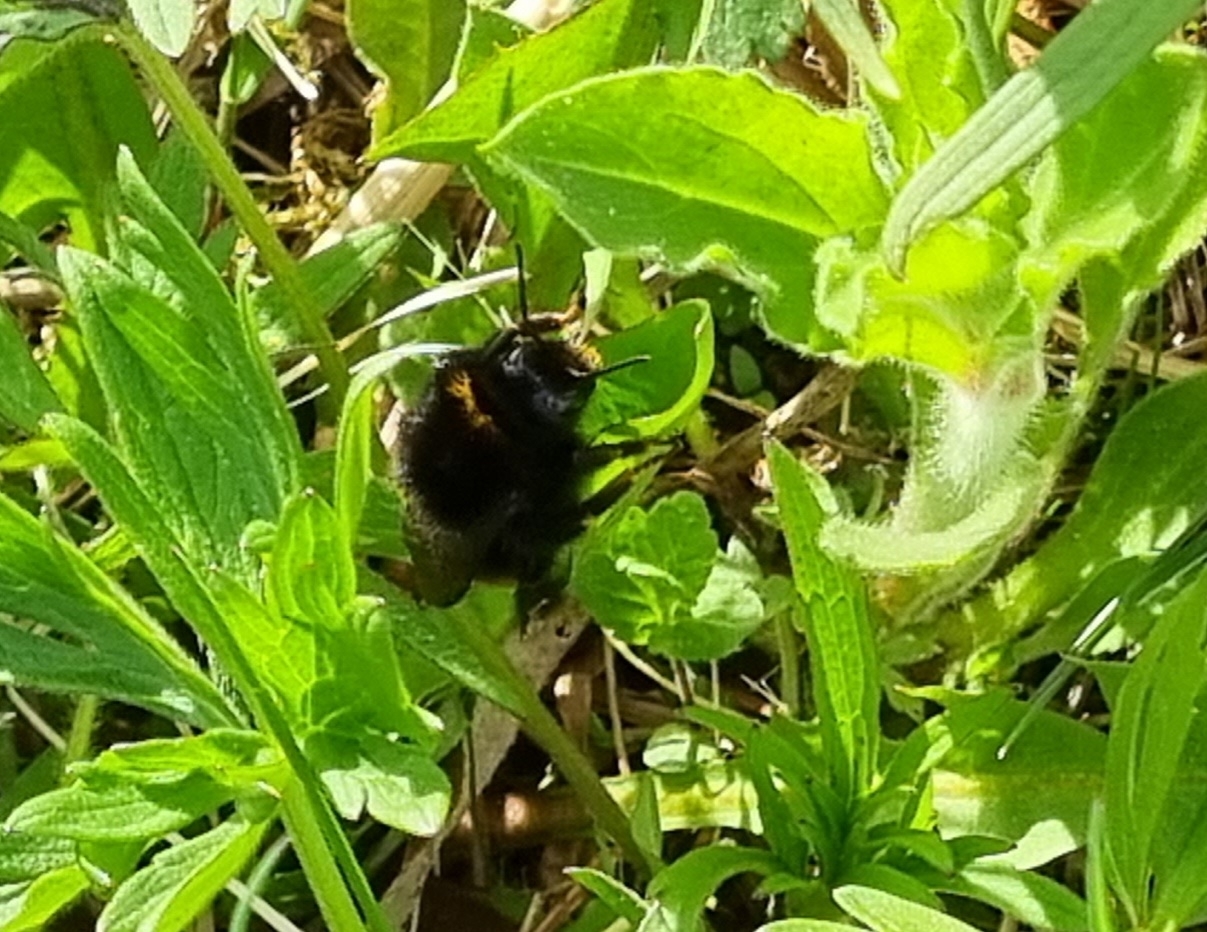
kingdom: Animalia
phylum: Arthropoda
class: Insecta
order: Hymenoptera
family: Apidae
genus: Bombus
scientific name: Bombus terrestris
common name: Buff-tailed bumblebee
